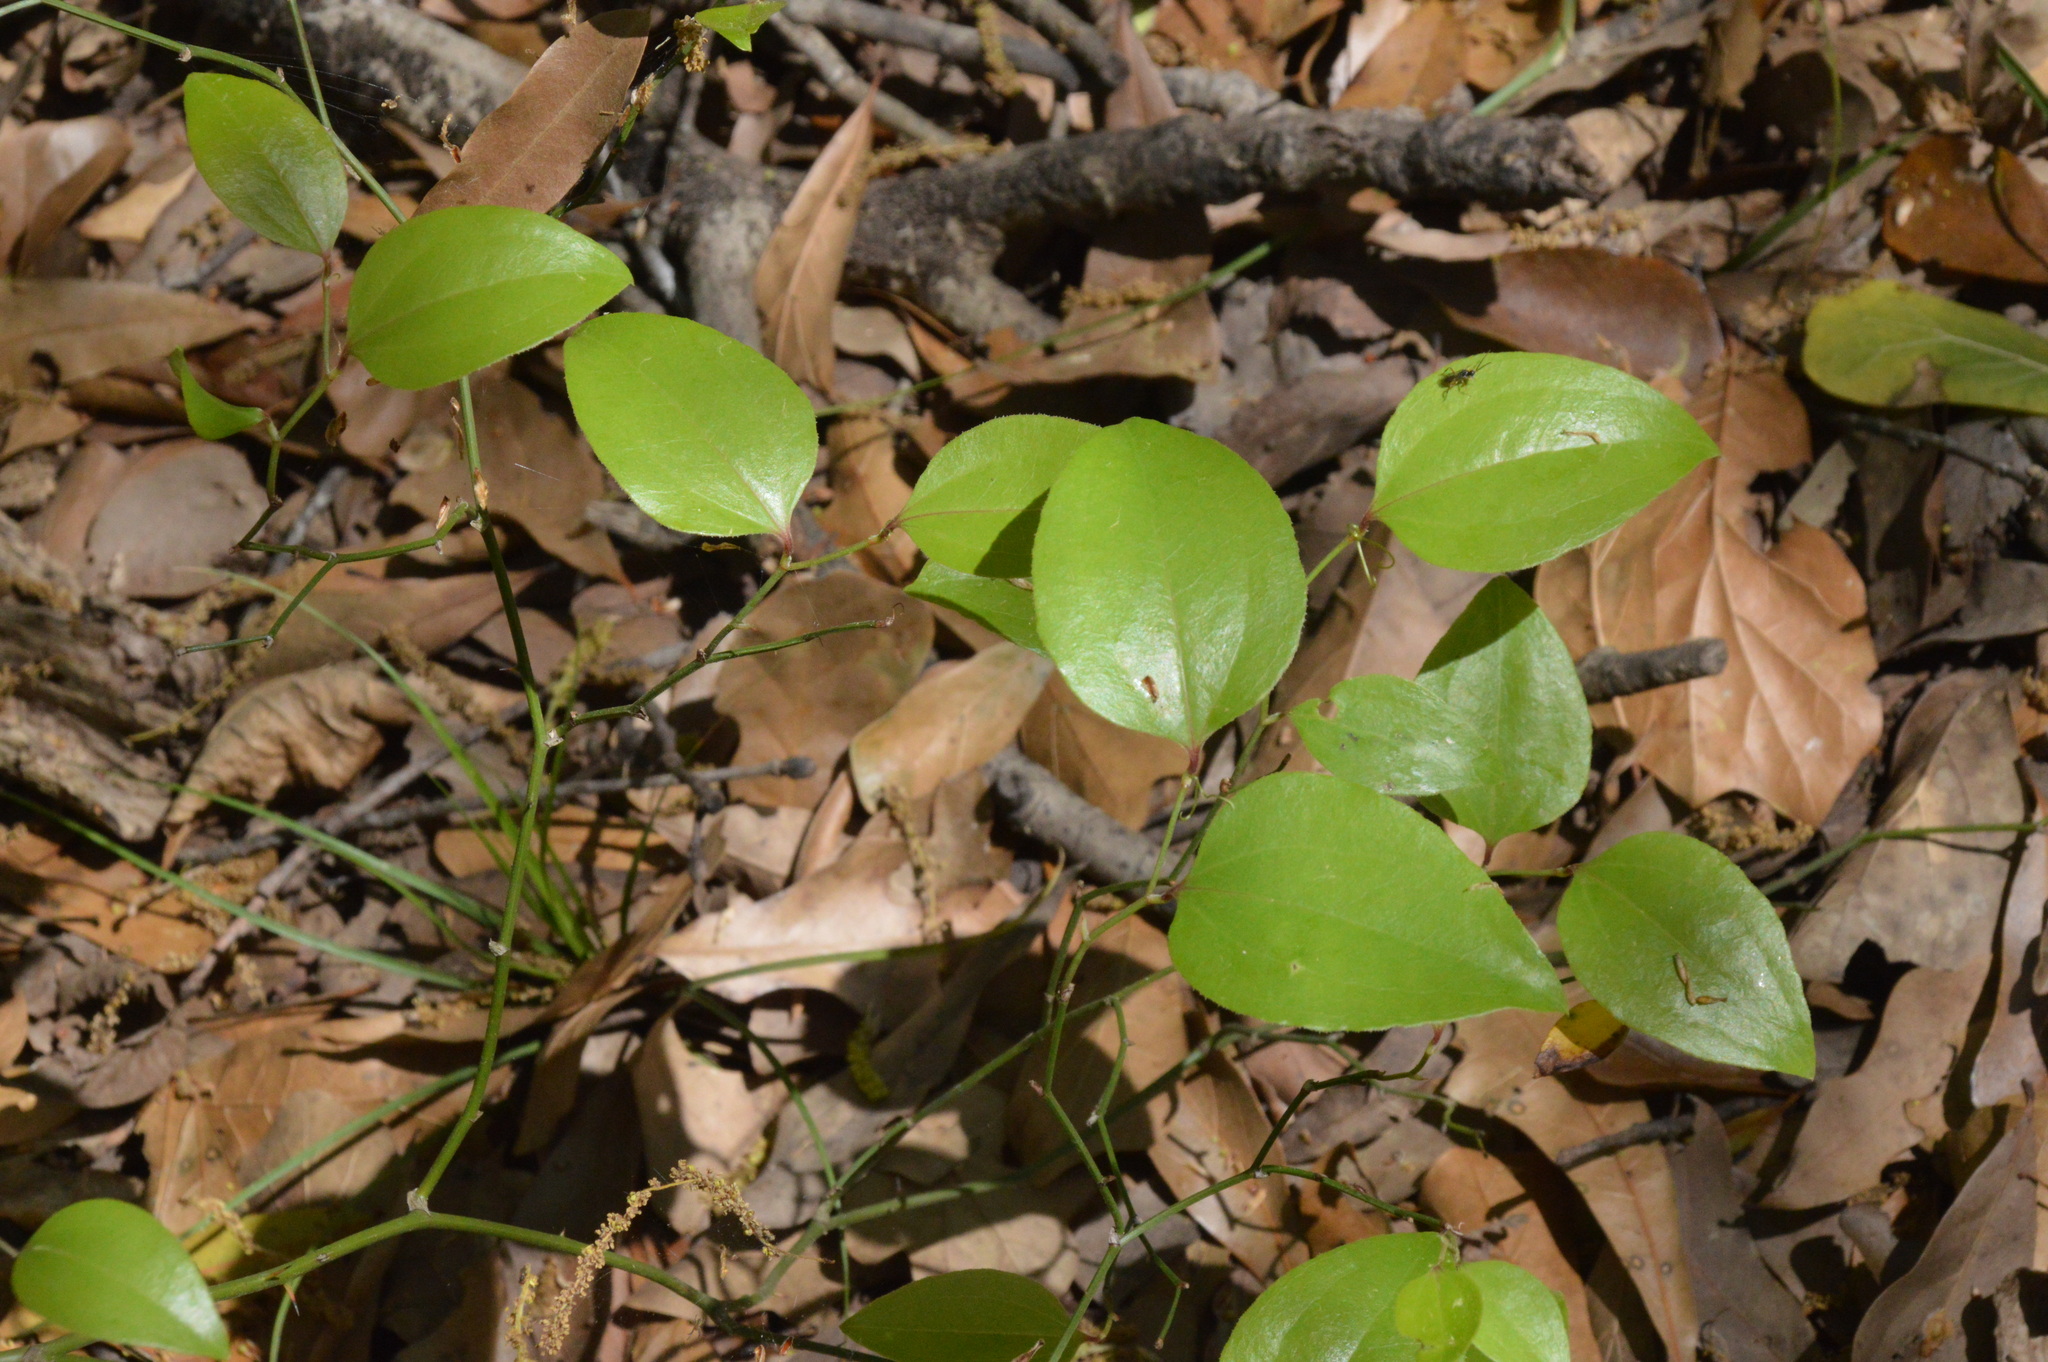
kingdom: Plantae
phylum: Tracheophyta
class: Liliopsida
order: Liliales
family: Smilacaceae
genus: Smilax
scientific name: Smilax rotundifolia
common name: Bullbriar
